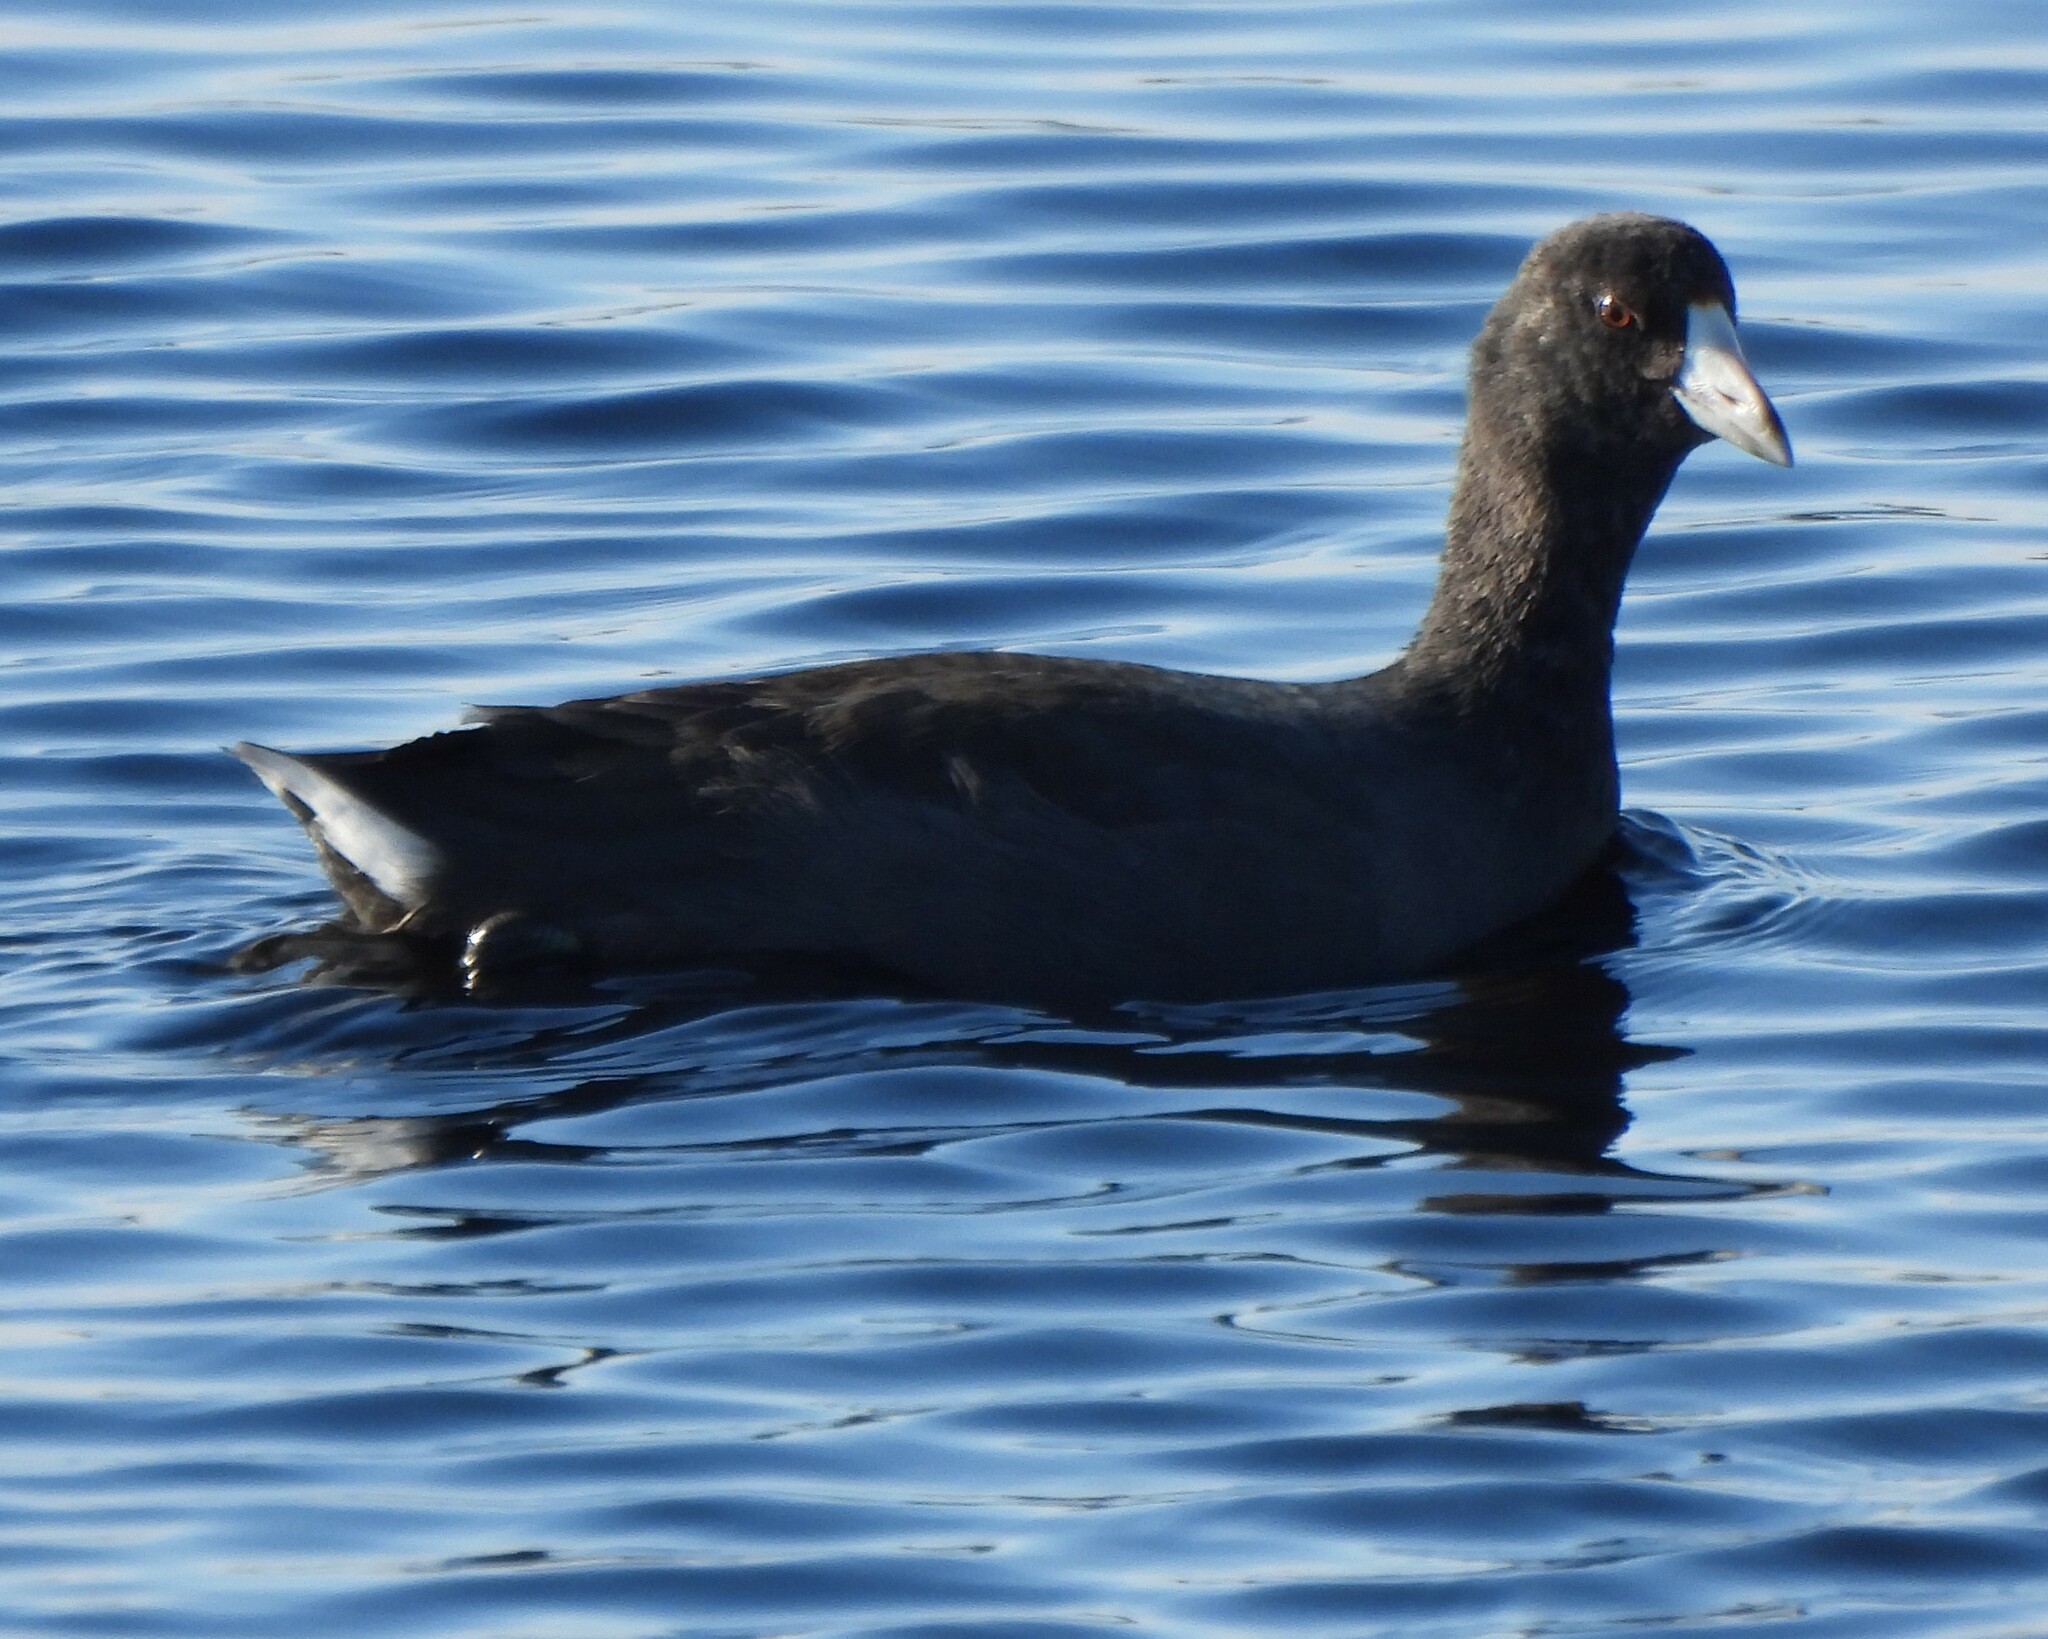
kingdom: Animalia
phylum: Chordata
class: Aves
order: Gruiformes
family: Rallidae
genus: Fulica
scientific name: Fulica americana
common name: American coot
